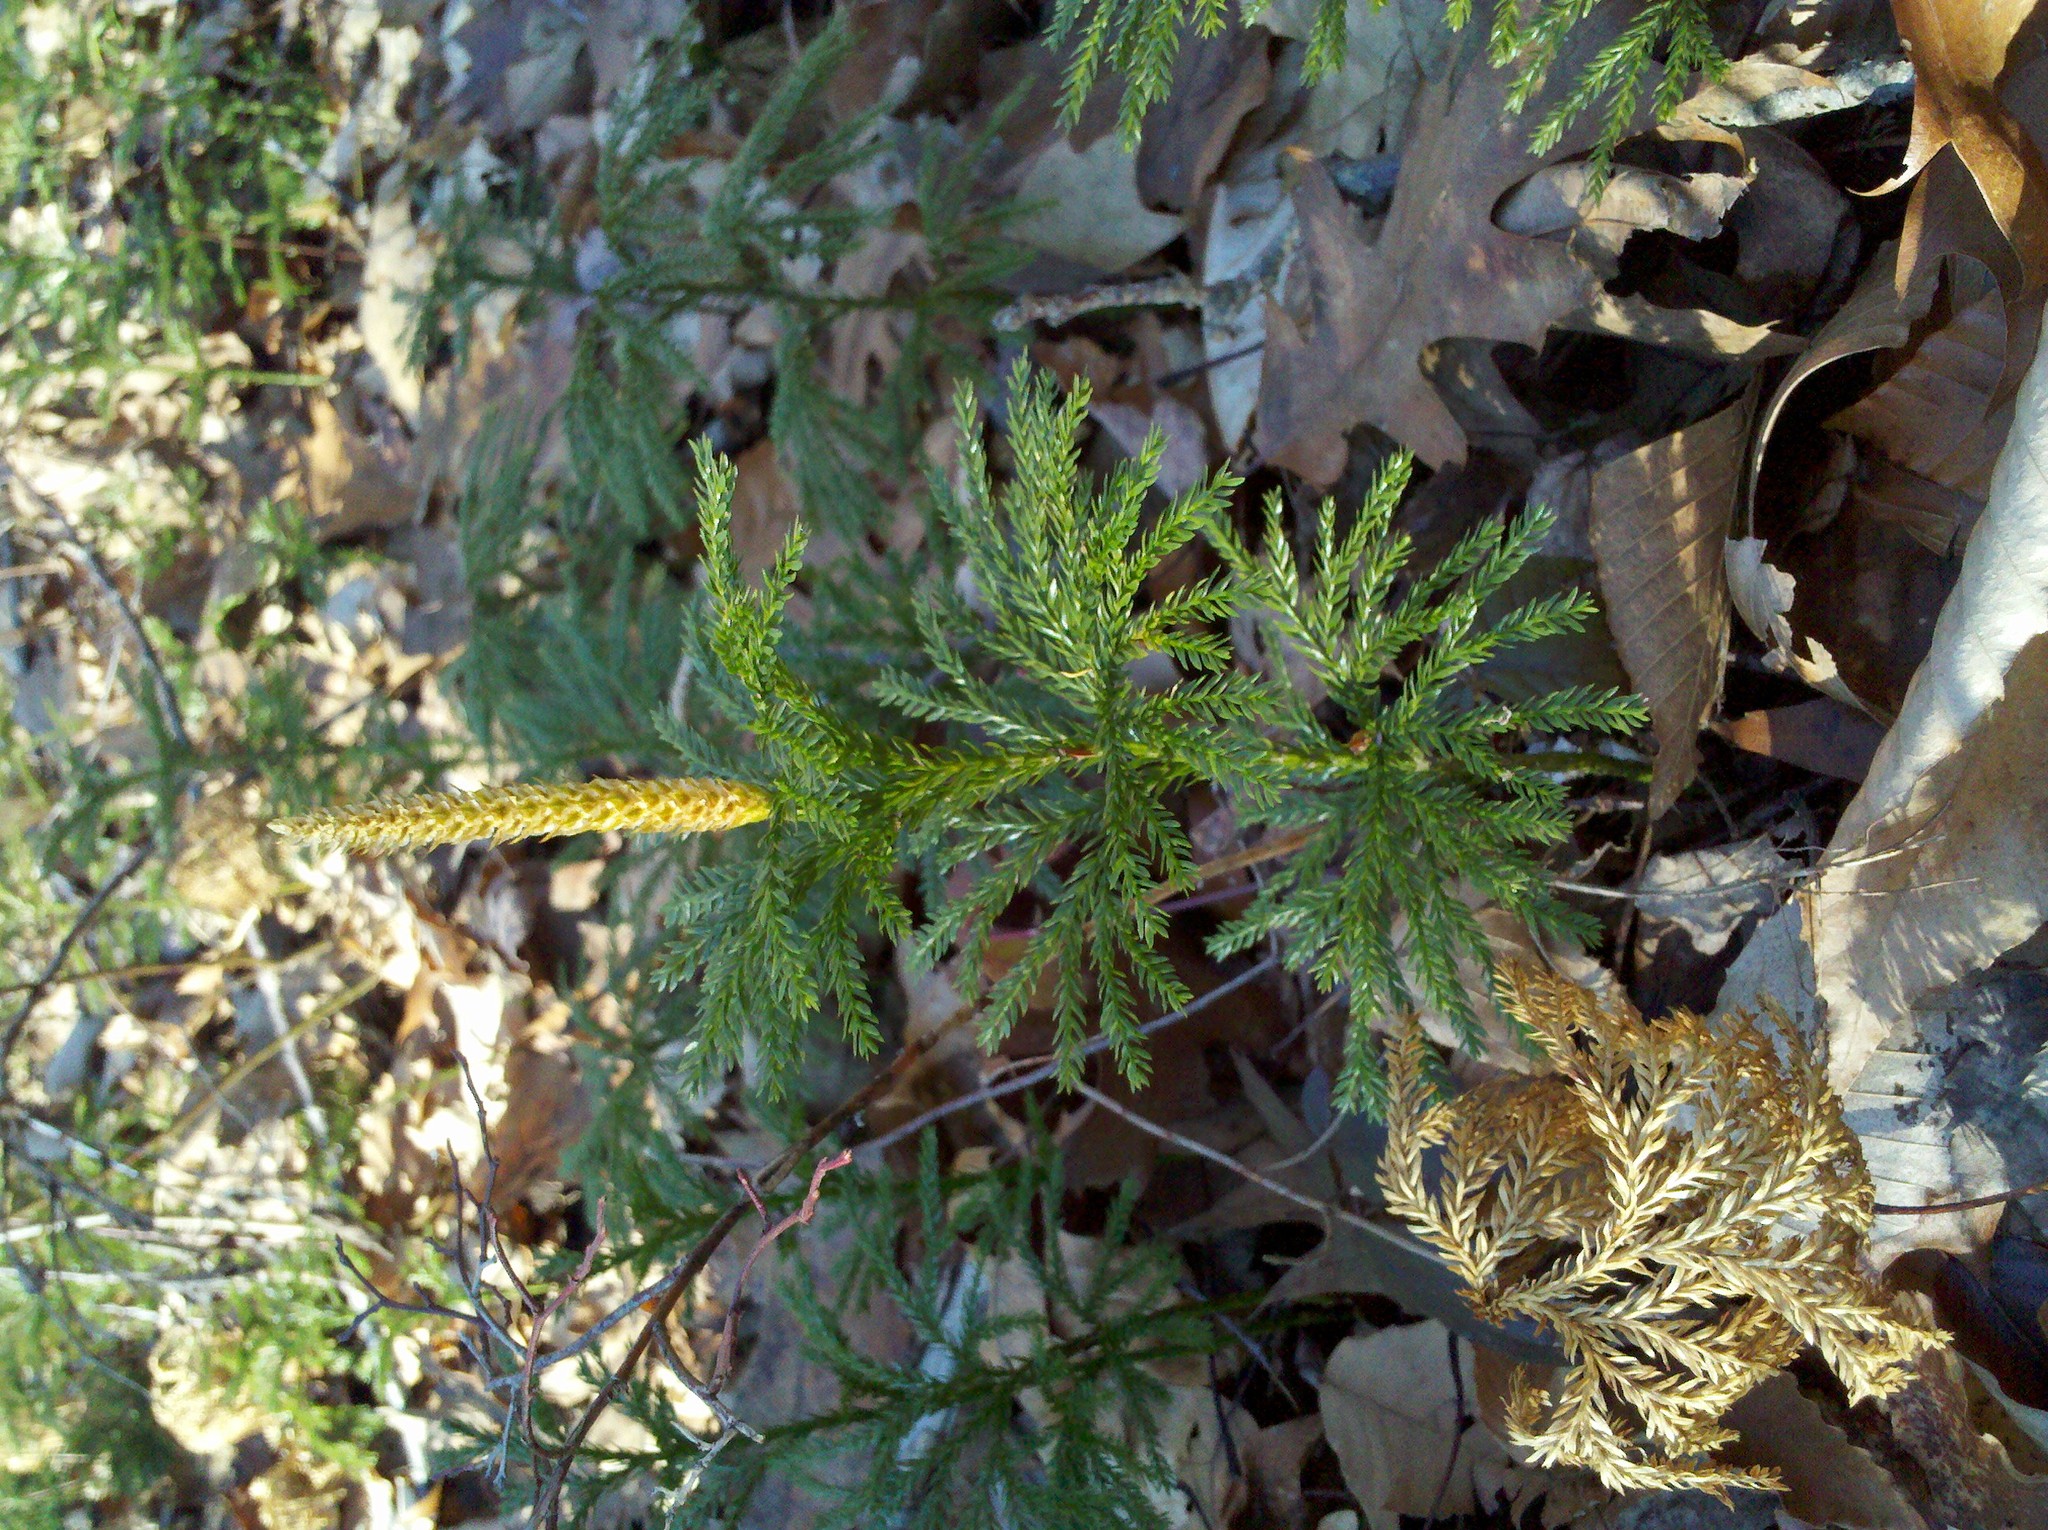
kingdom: Plantae
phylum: Tracheophyta
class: Lycopodiopsida
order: Lycopodiales
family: Lycopodiaceae
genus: Dendrolycopodium
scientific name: Dendrolycopodium obscurum
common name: Common ground-pine
